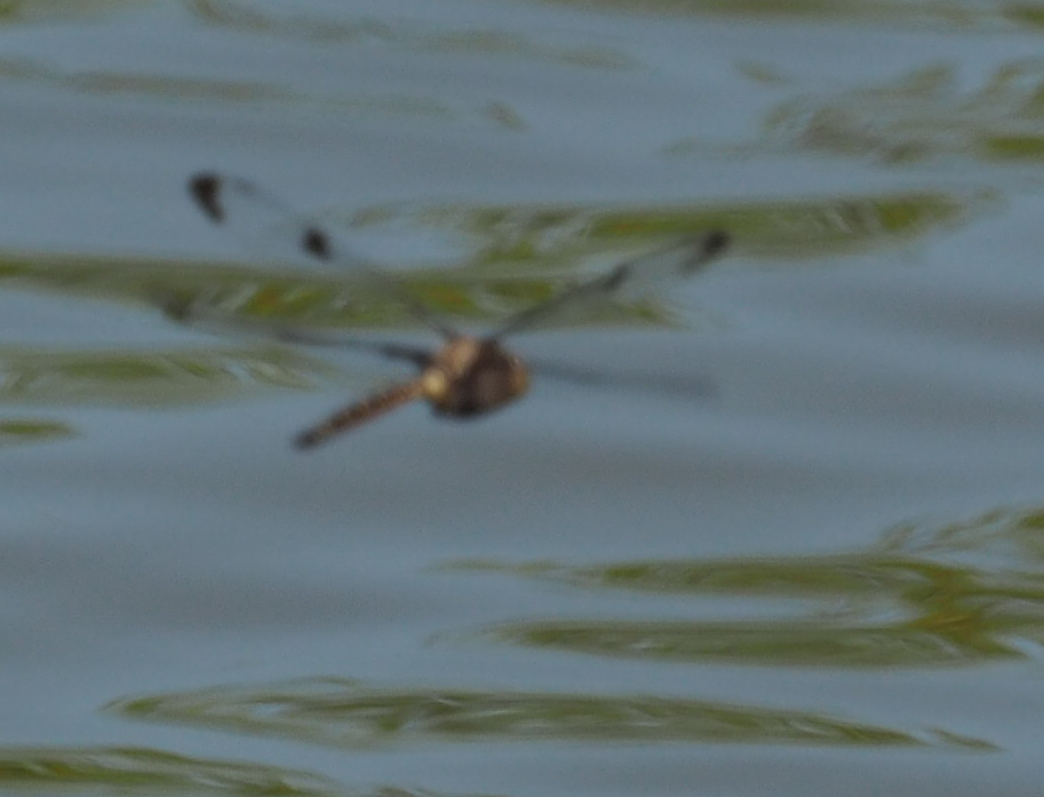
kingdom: Animalia
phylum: Arthropoda
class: Insecta
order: Odonata
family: Corduliidae
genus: Epitheca
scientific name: Epitheca princeps
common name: Prince baskettail
